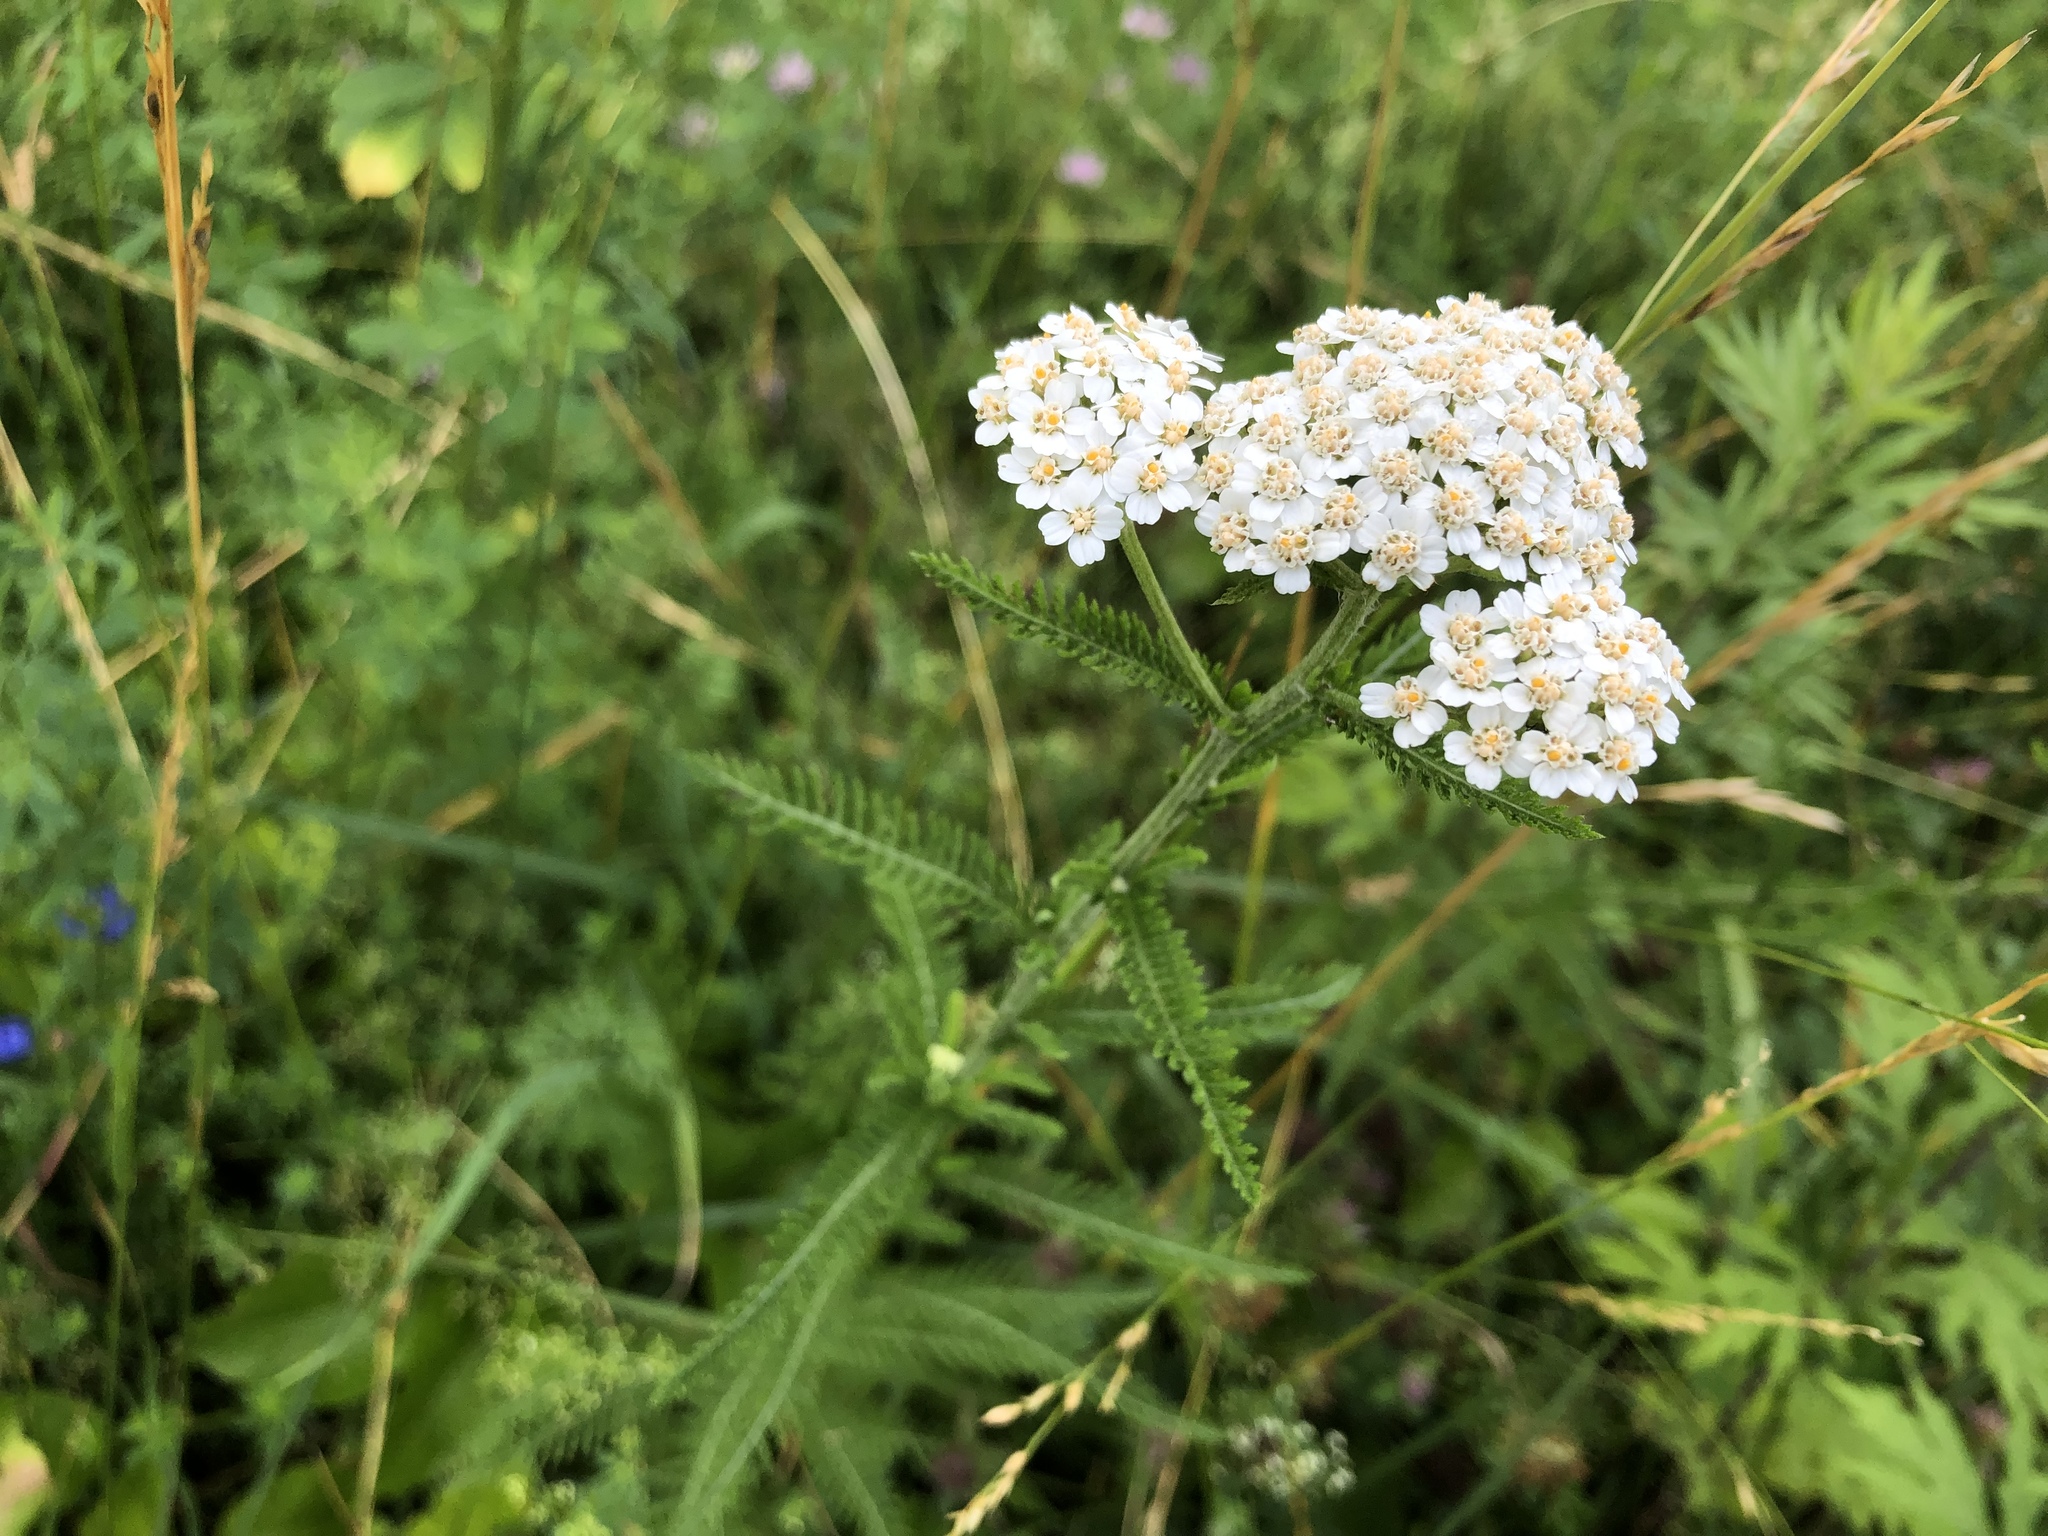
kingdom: Plantae
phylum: Tracheophyta
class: Magnoliopsida
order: Asterales
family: Asteraceae
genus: Achillea
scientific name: Achillea millefolium
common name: Yarrow
